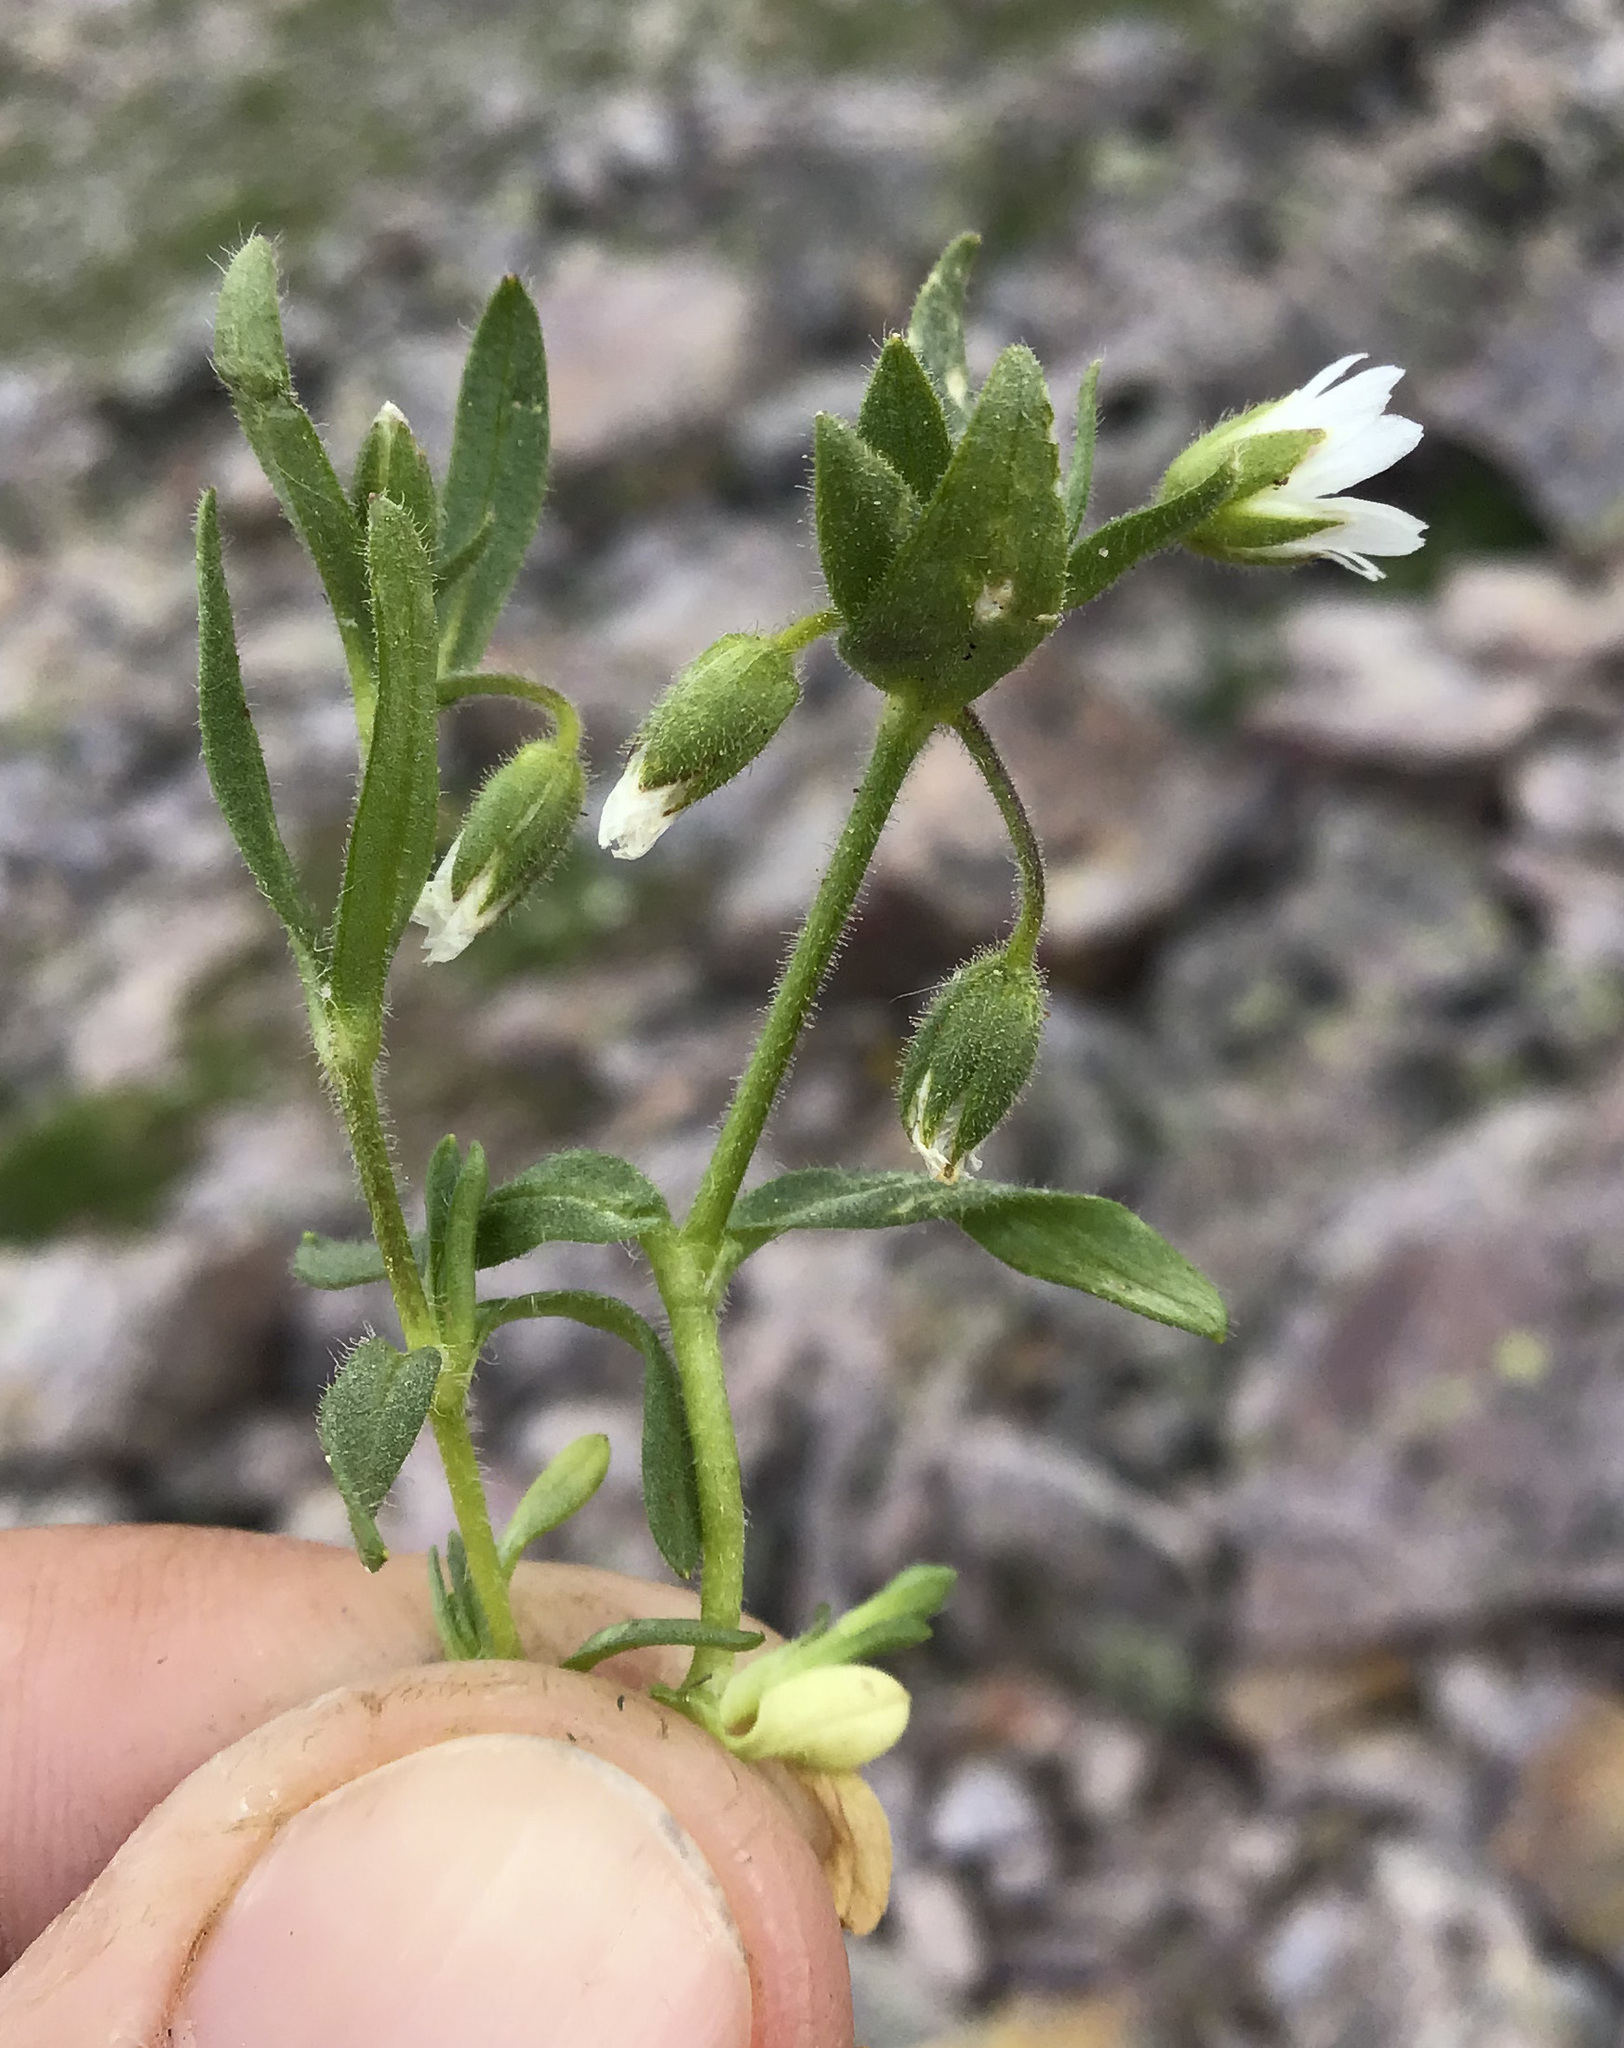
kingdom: Plantae
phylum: Tracheophyta
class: Magnoliopsida
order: Caryophyllales
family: Caryophyllaceae
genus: Cerastium
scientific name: Cerastium beeringianum
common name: Bering mouse-ear chickweed
